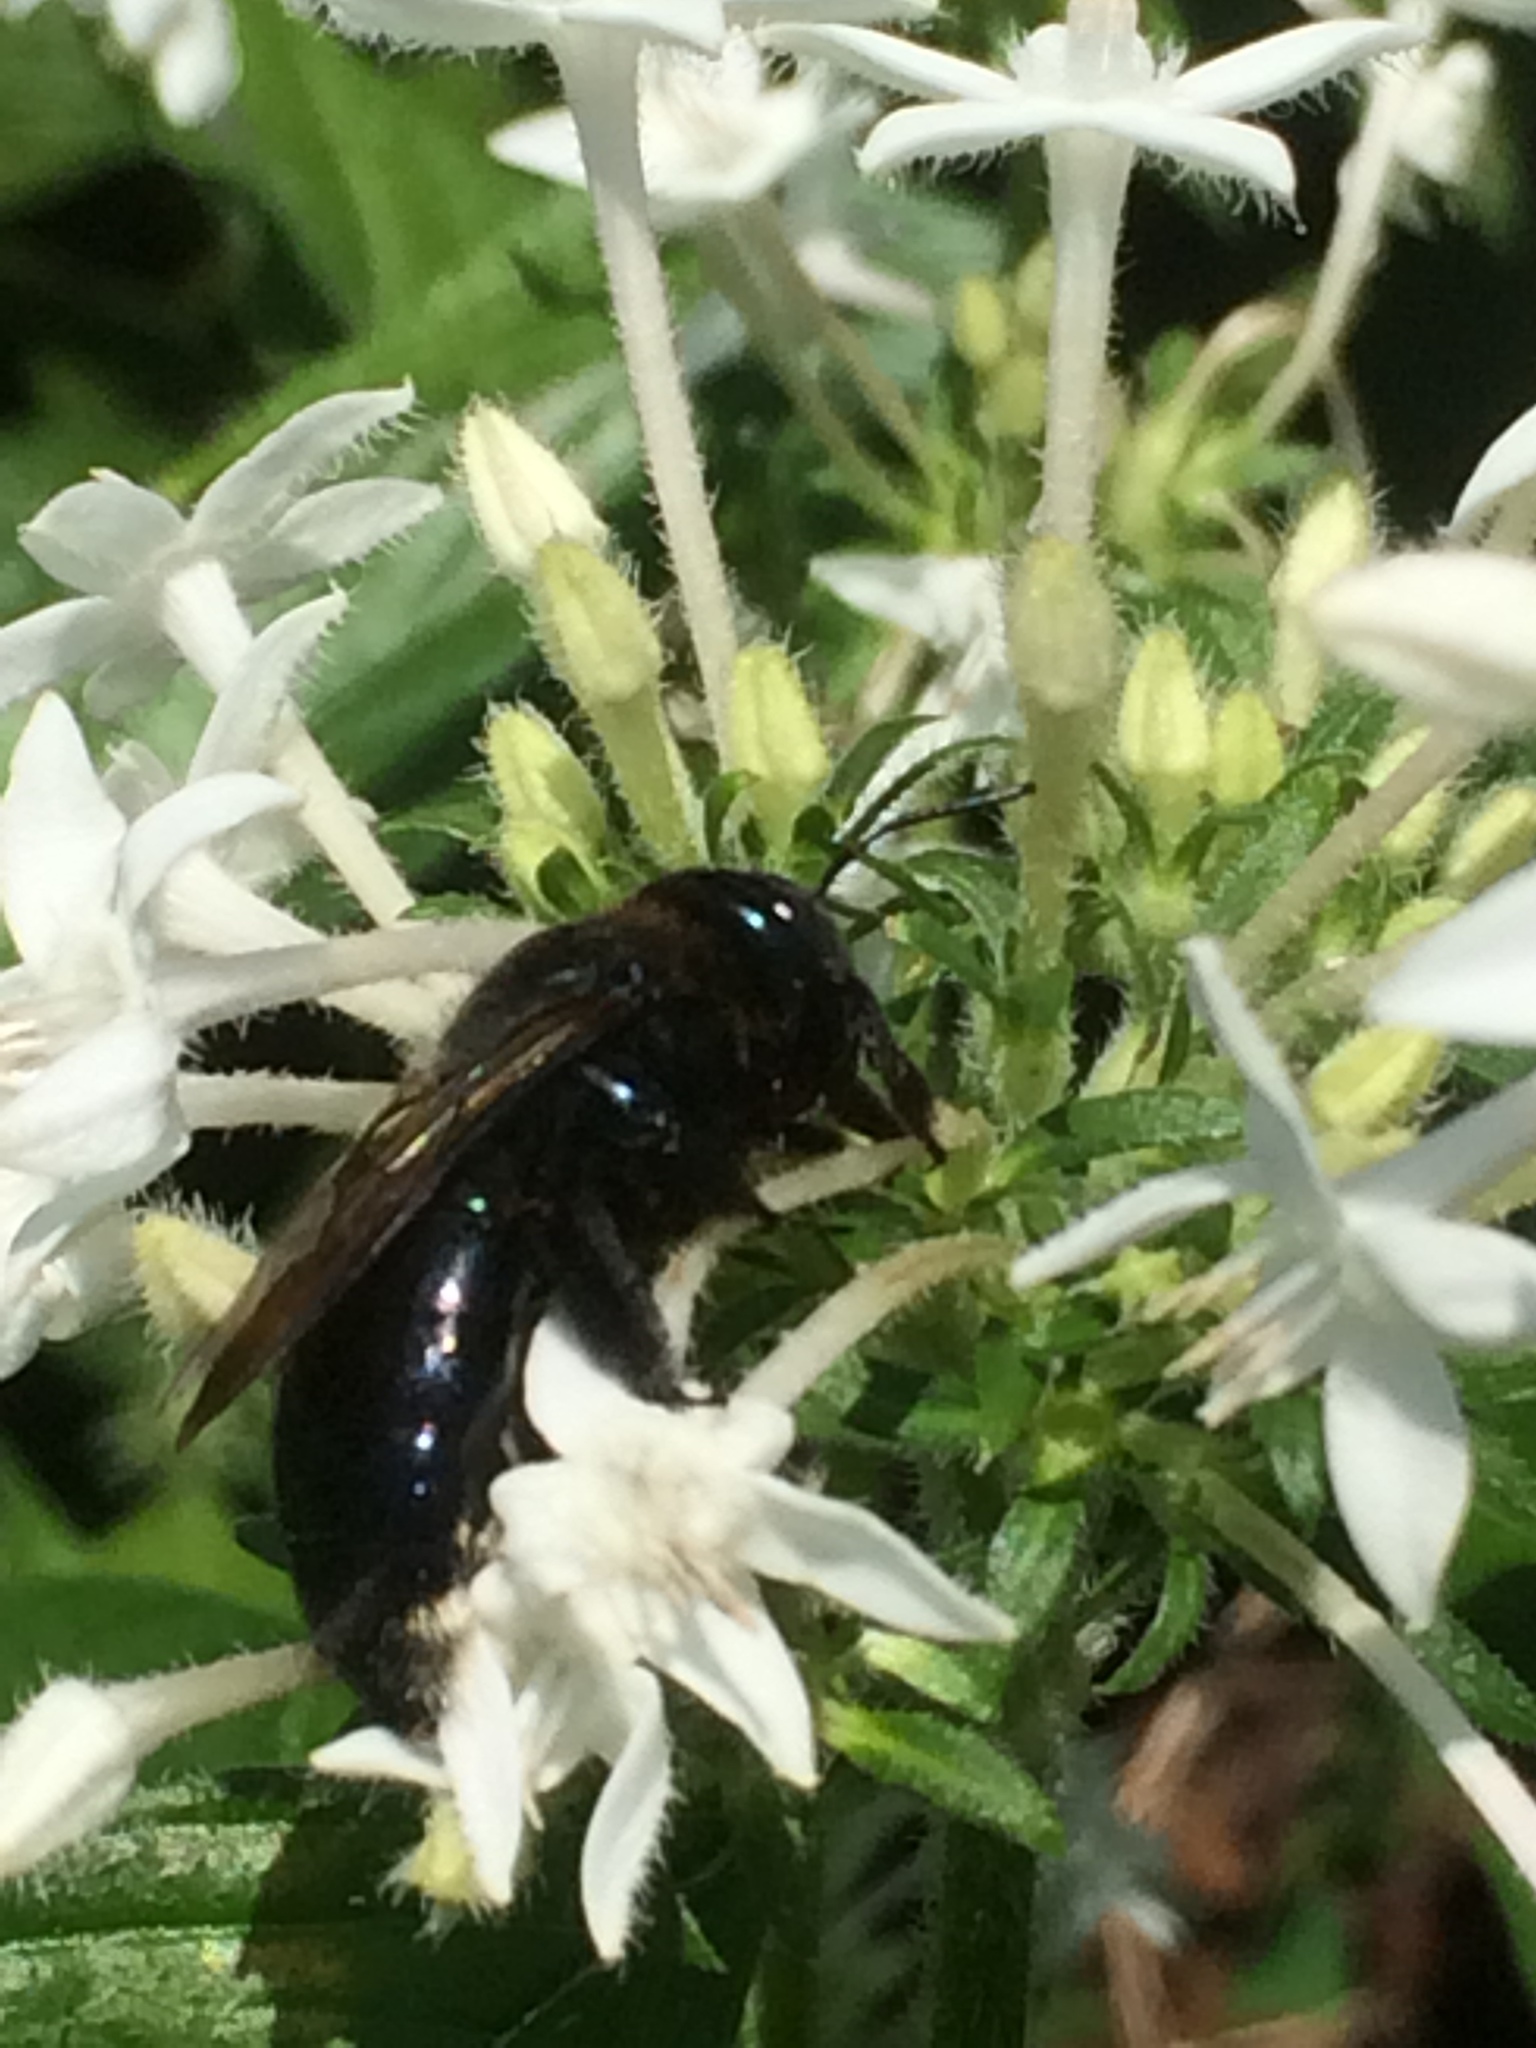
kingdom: Animalia
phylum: Arthropoda
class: Insecta
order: Hymenoptera
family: Apidae
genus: Xylocopa
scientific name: Xylocopa micans
